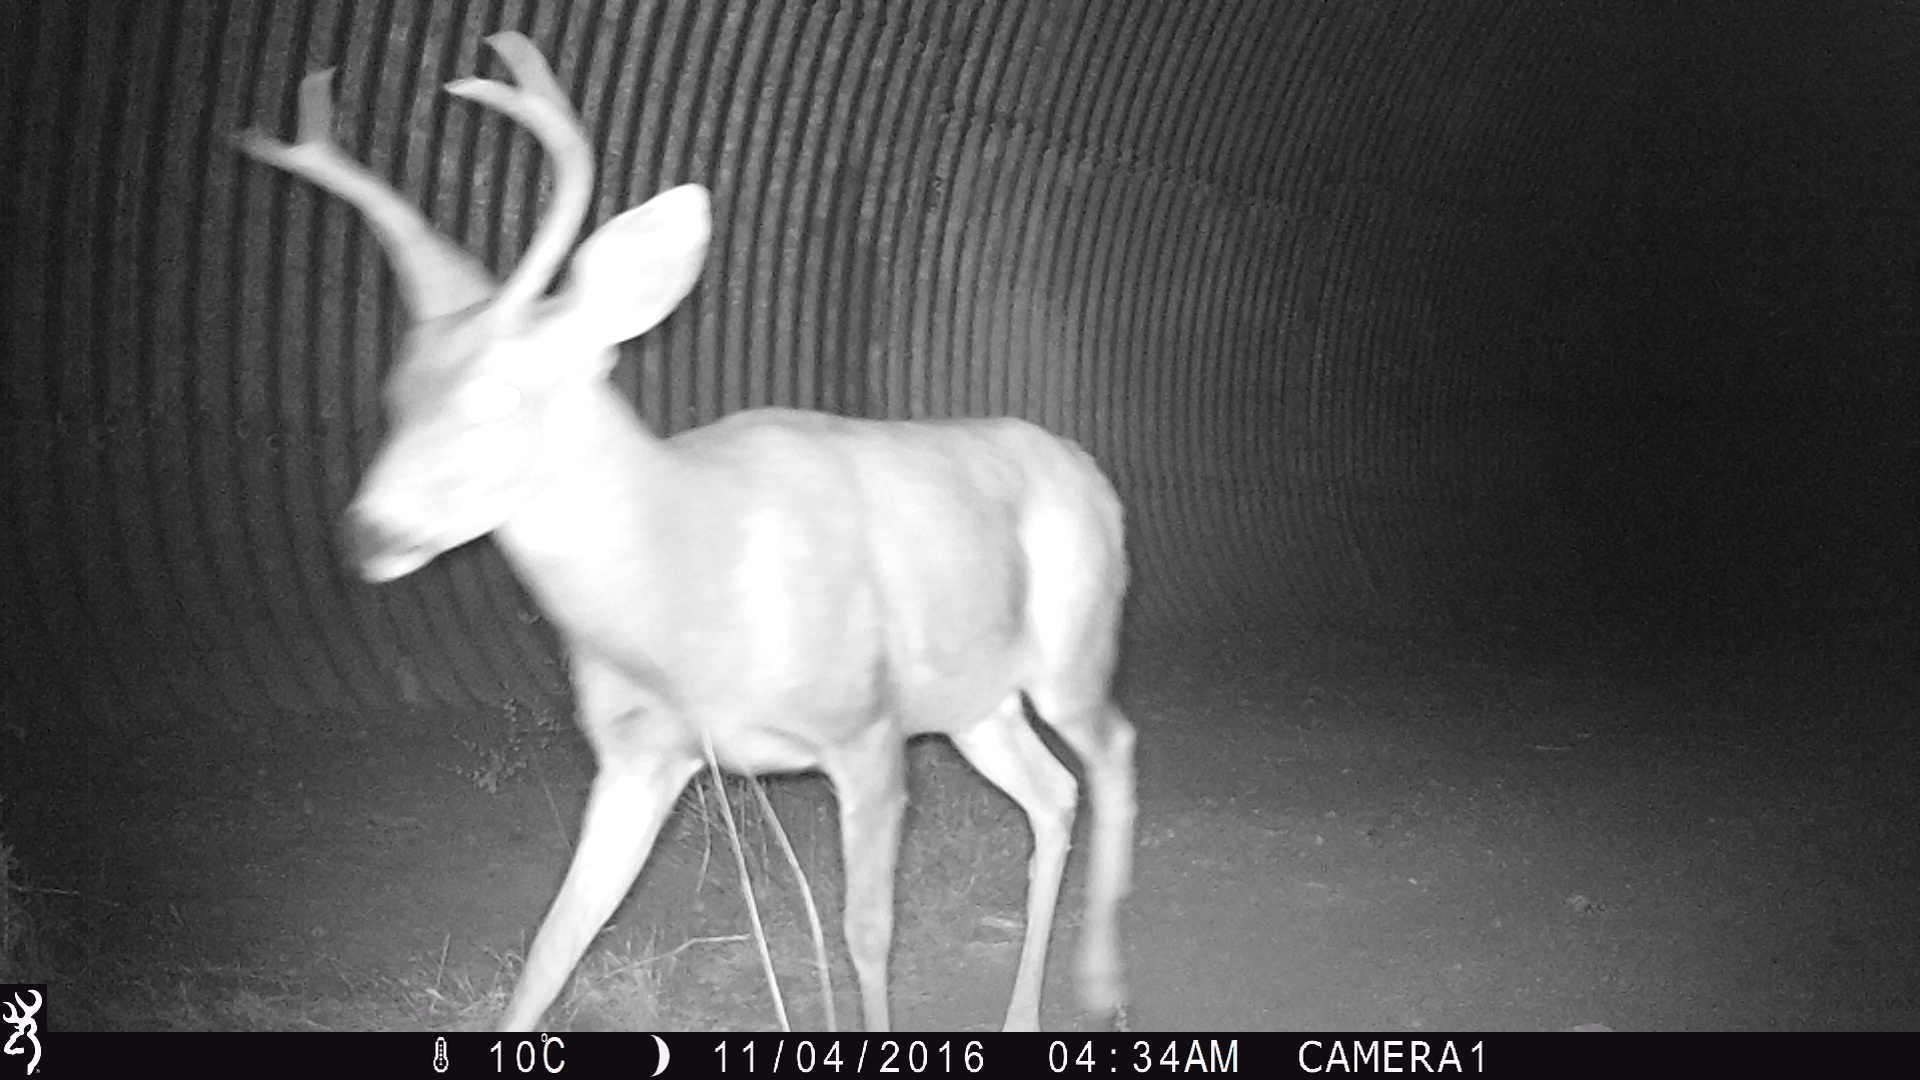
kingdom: Animalia
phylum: Chordata
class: Mammalia
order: Artiodactyla
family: Cervidae
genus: Odocoileus
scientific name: Odocoileus hemionus
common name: Mule deer
